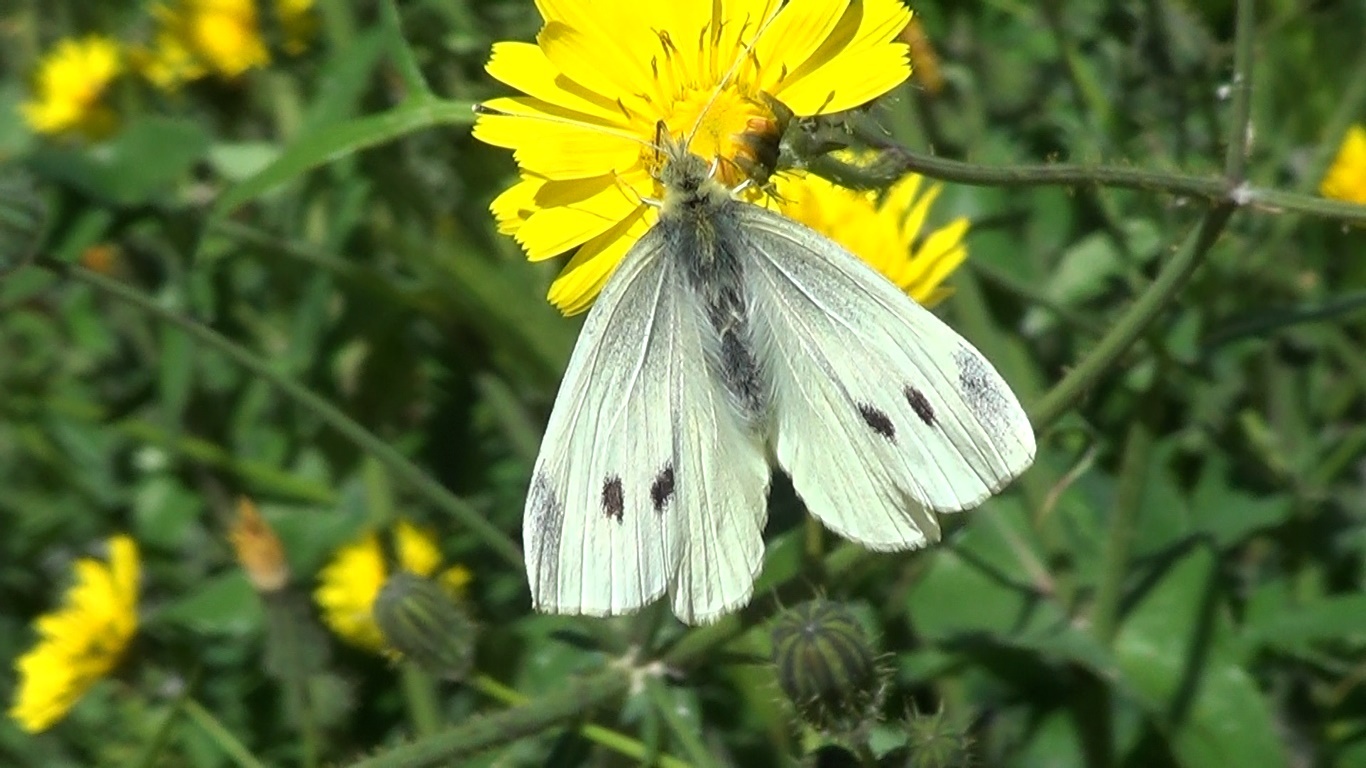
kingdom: Animalia
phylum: Arthropoda
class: Insecta
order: Lepidoptera
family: Pieridae
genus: Pieris
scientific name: Pieris rapae
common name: Small white
